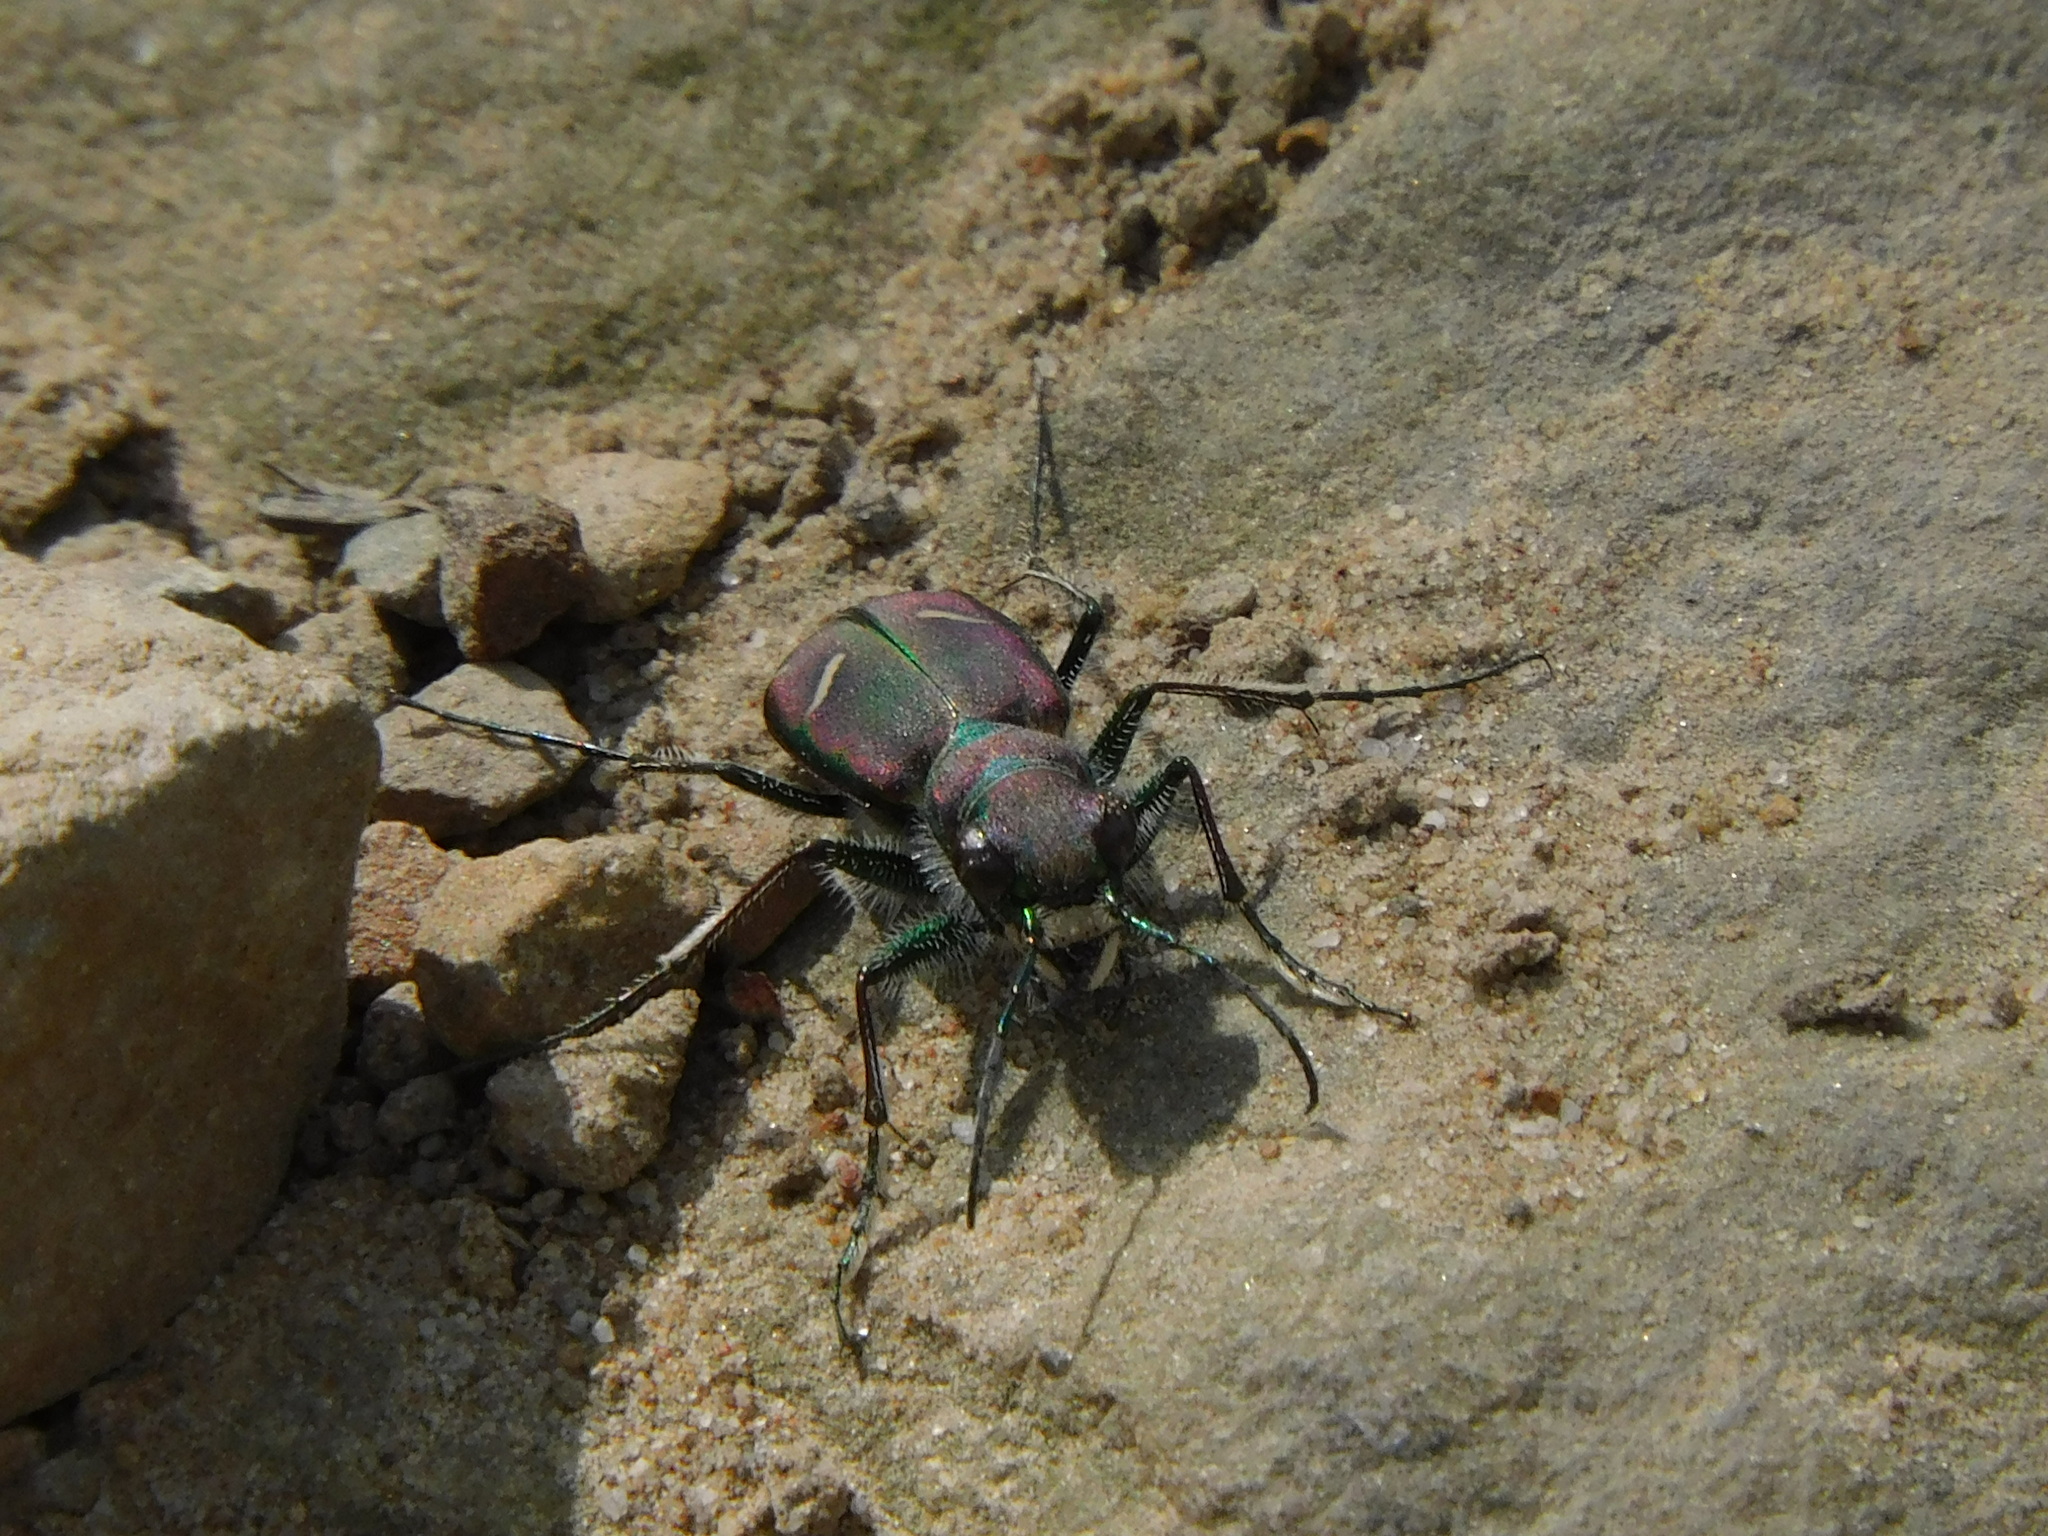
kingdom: Animalia
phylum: Arthropoda
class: Insecta
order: Coleoptera
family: Carabidae
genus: Cicindela
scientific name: Cicindela purpurea
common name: Cow path tiger beetle
